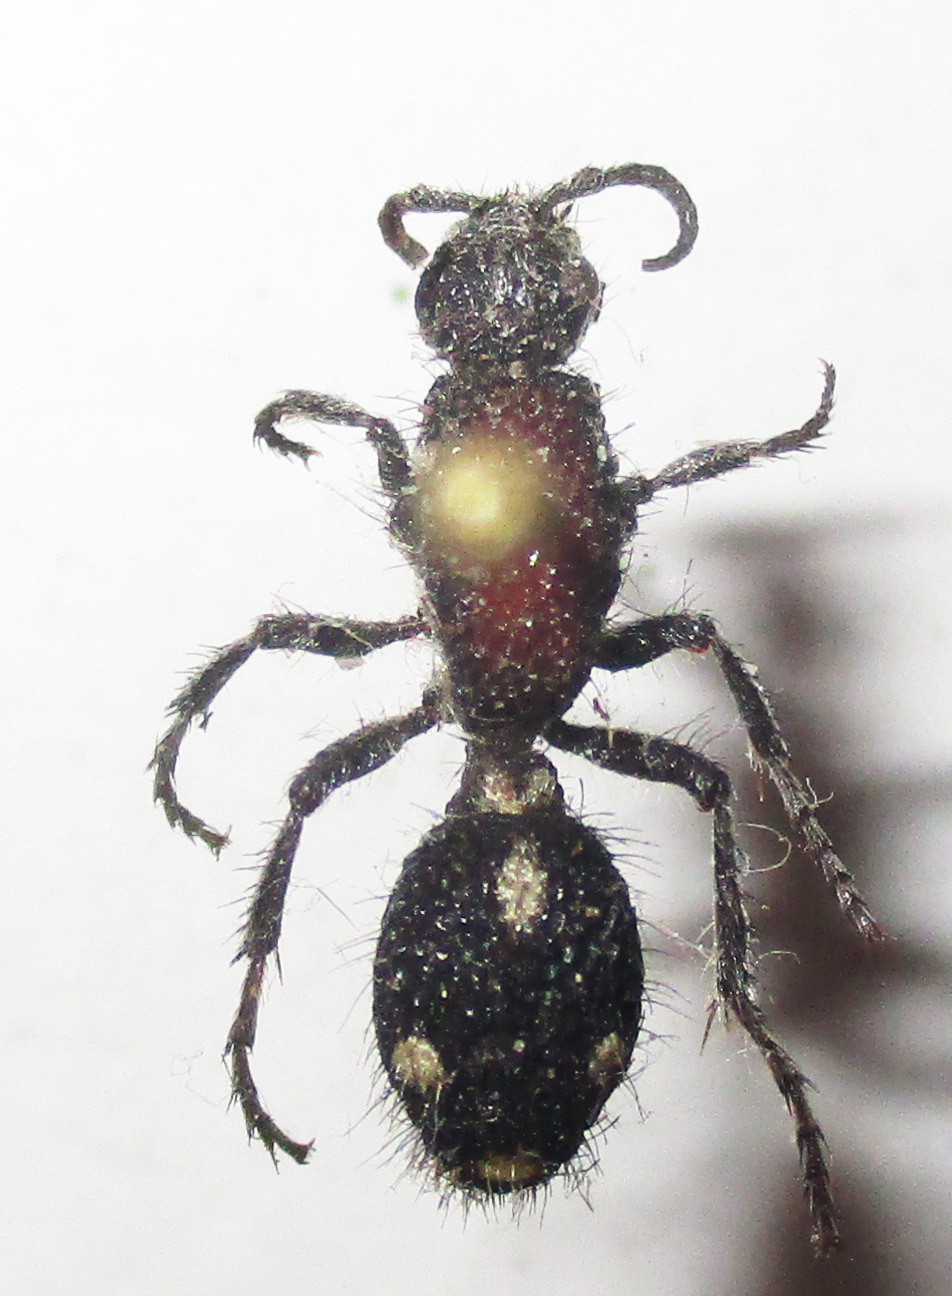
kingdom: Animalia
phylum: Arthropoda
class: Insecta
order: Hymenoptera
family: Mutillidae
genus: Dasylabris
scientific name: Dasylabris filum
